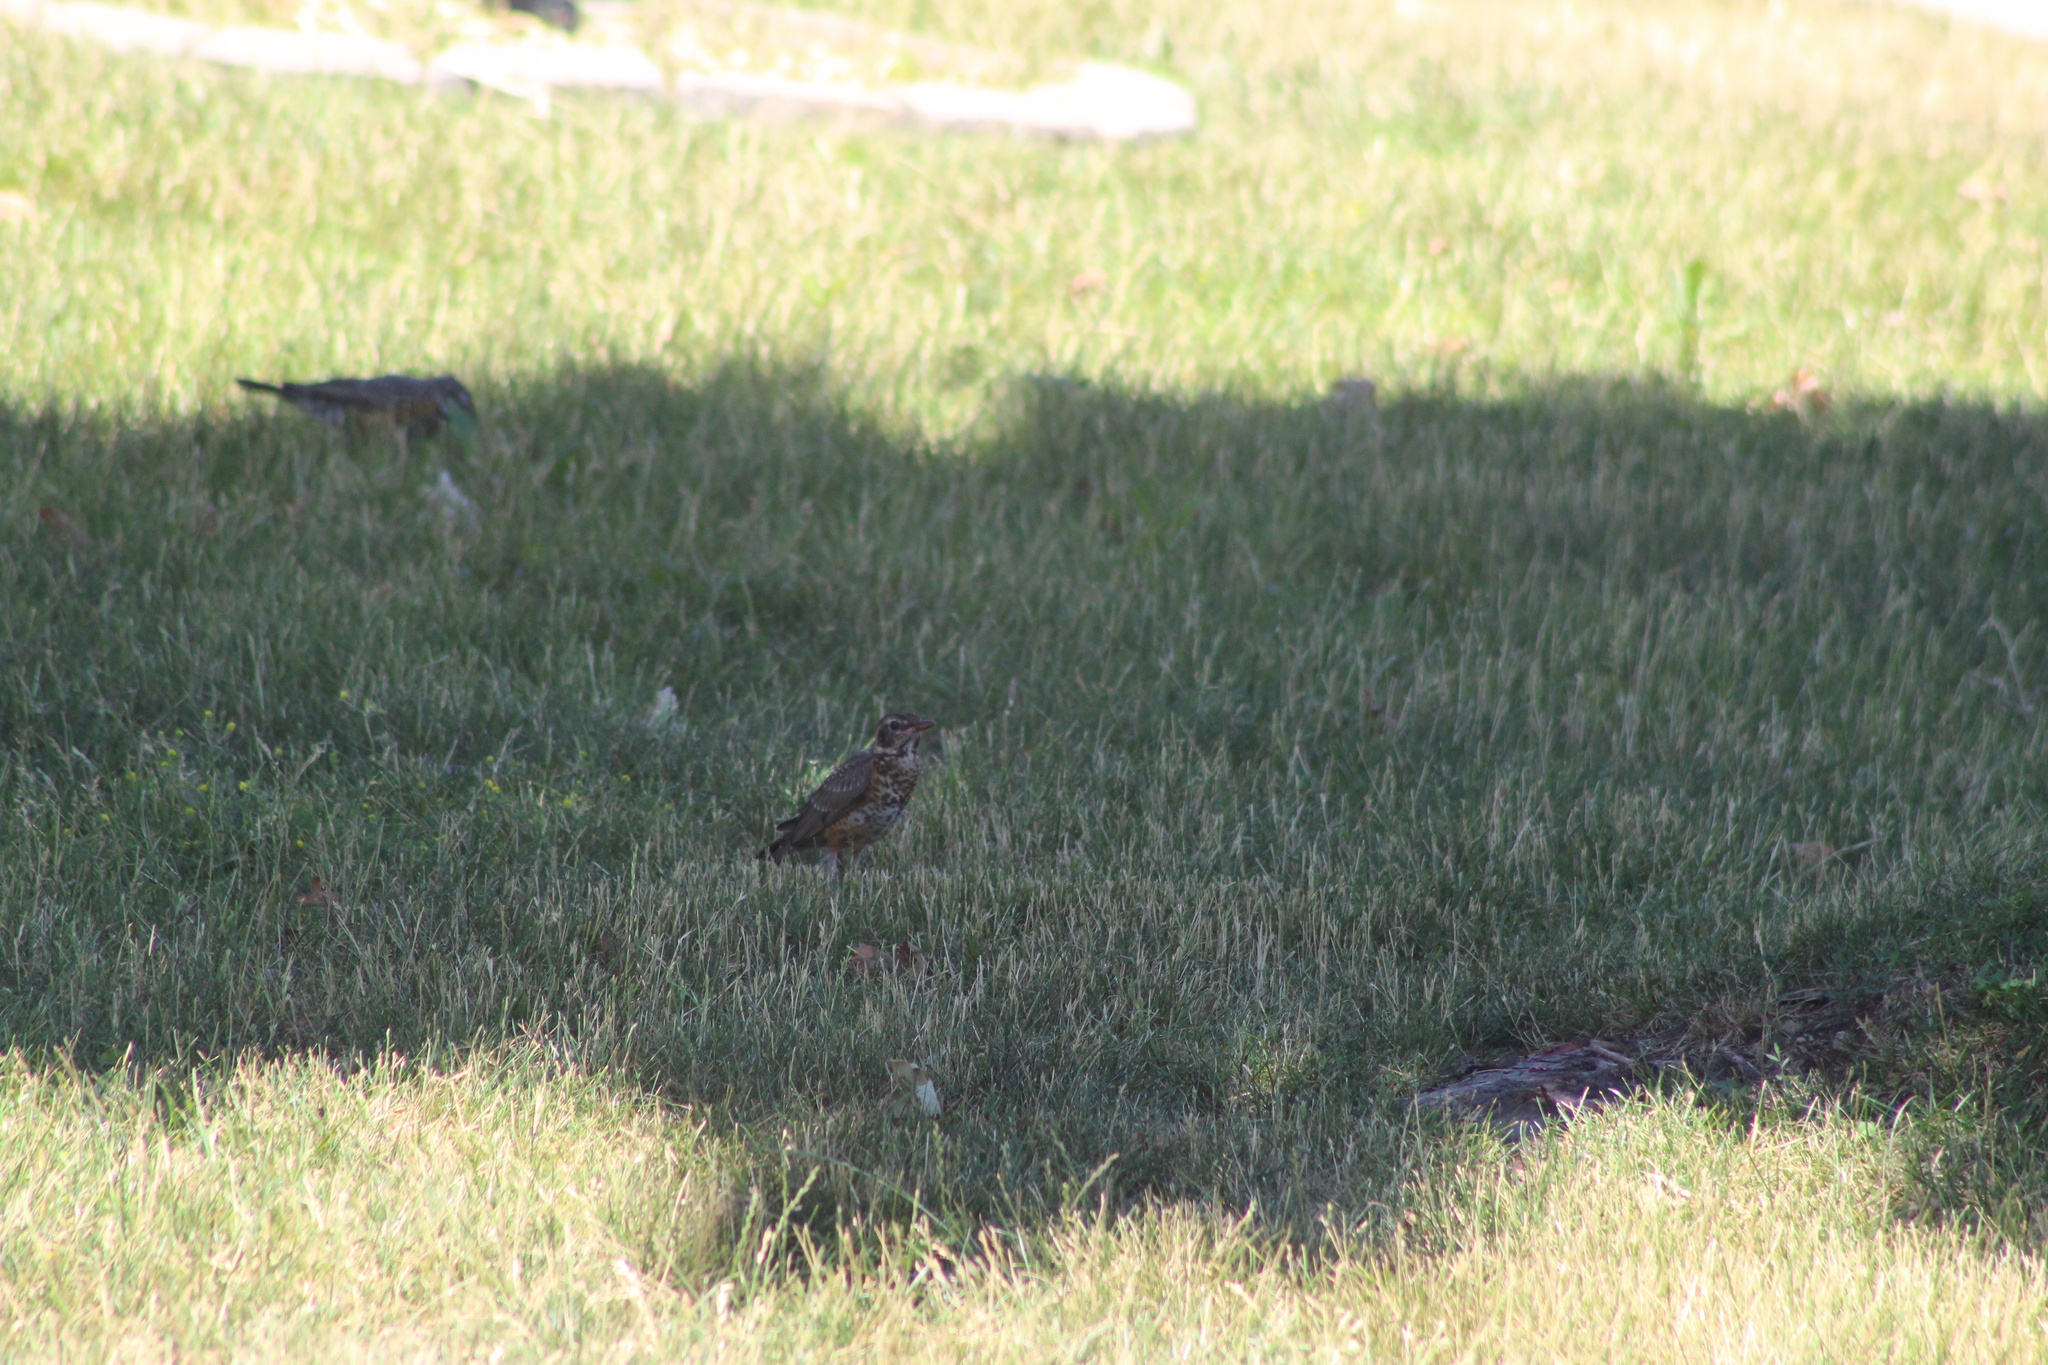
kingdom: Animalia
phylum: Chordata
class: Aves
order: Passeriformes
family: Turdidae
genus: Turdus
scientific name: Turdus migratorius
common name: American robin
